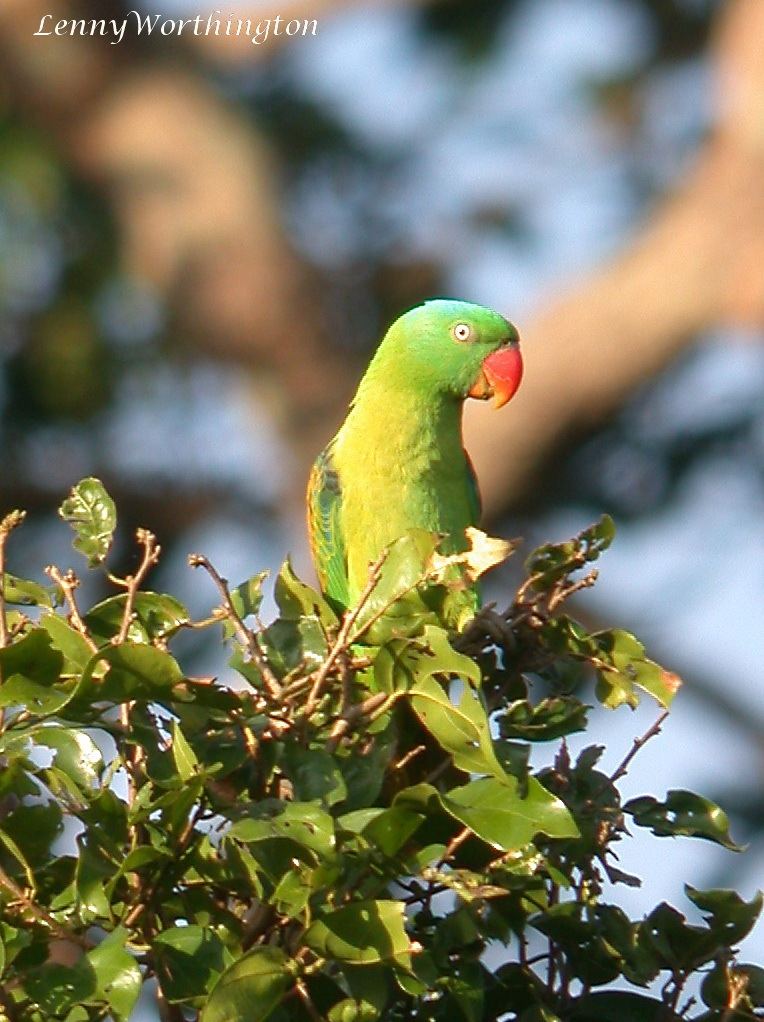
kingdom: Animalia
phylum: Chordata
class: Aves
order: Psittaciformes
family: Psittacidae
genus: Tanygnathus
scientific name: Tanygnathus lucionensis
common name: Blue-naped parrot
